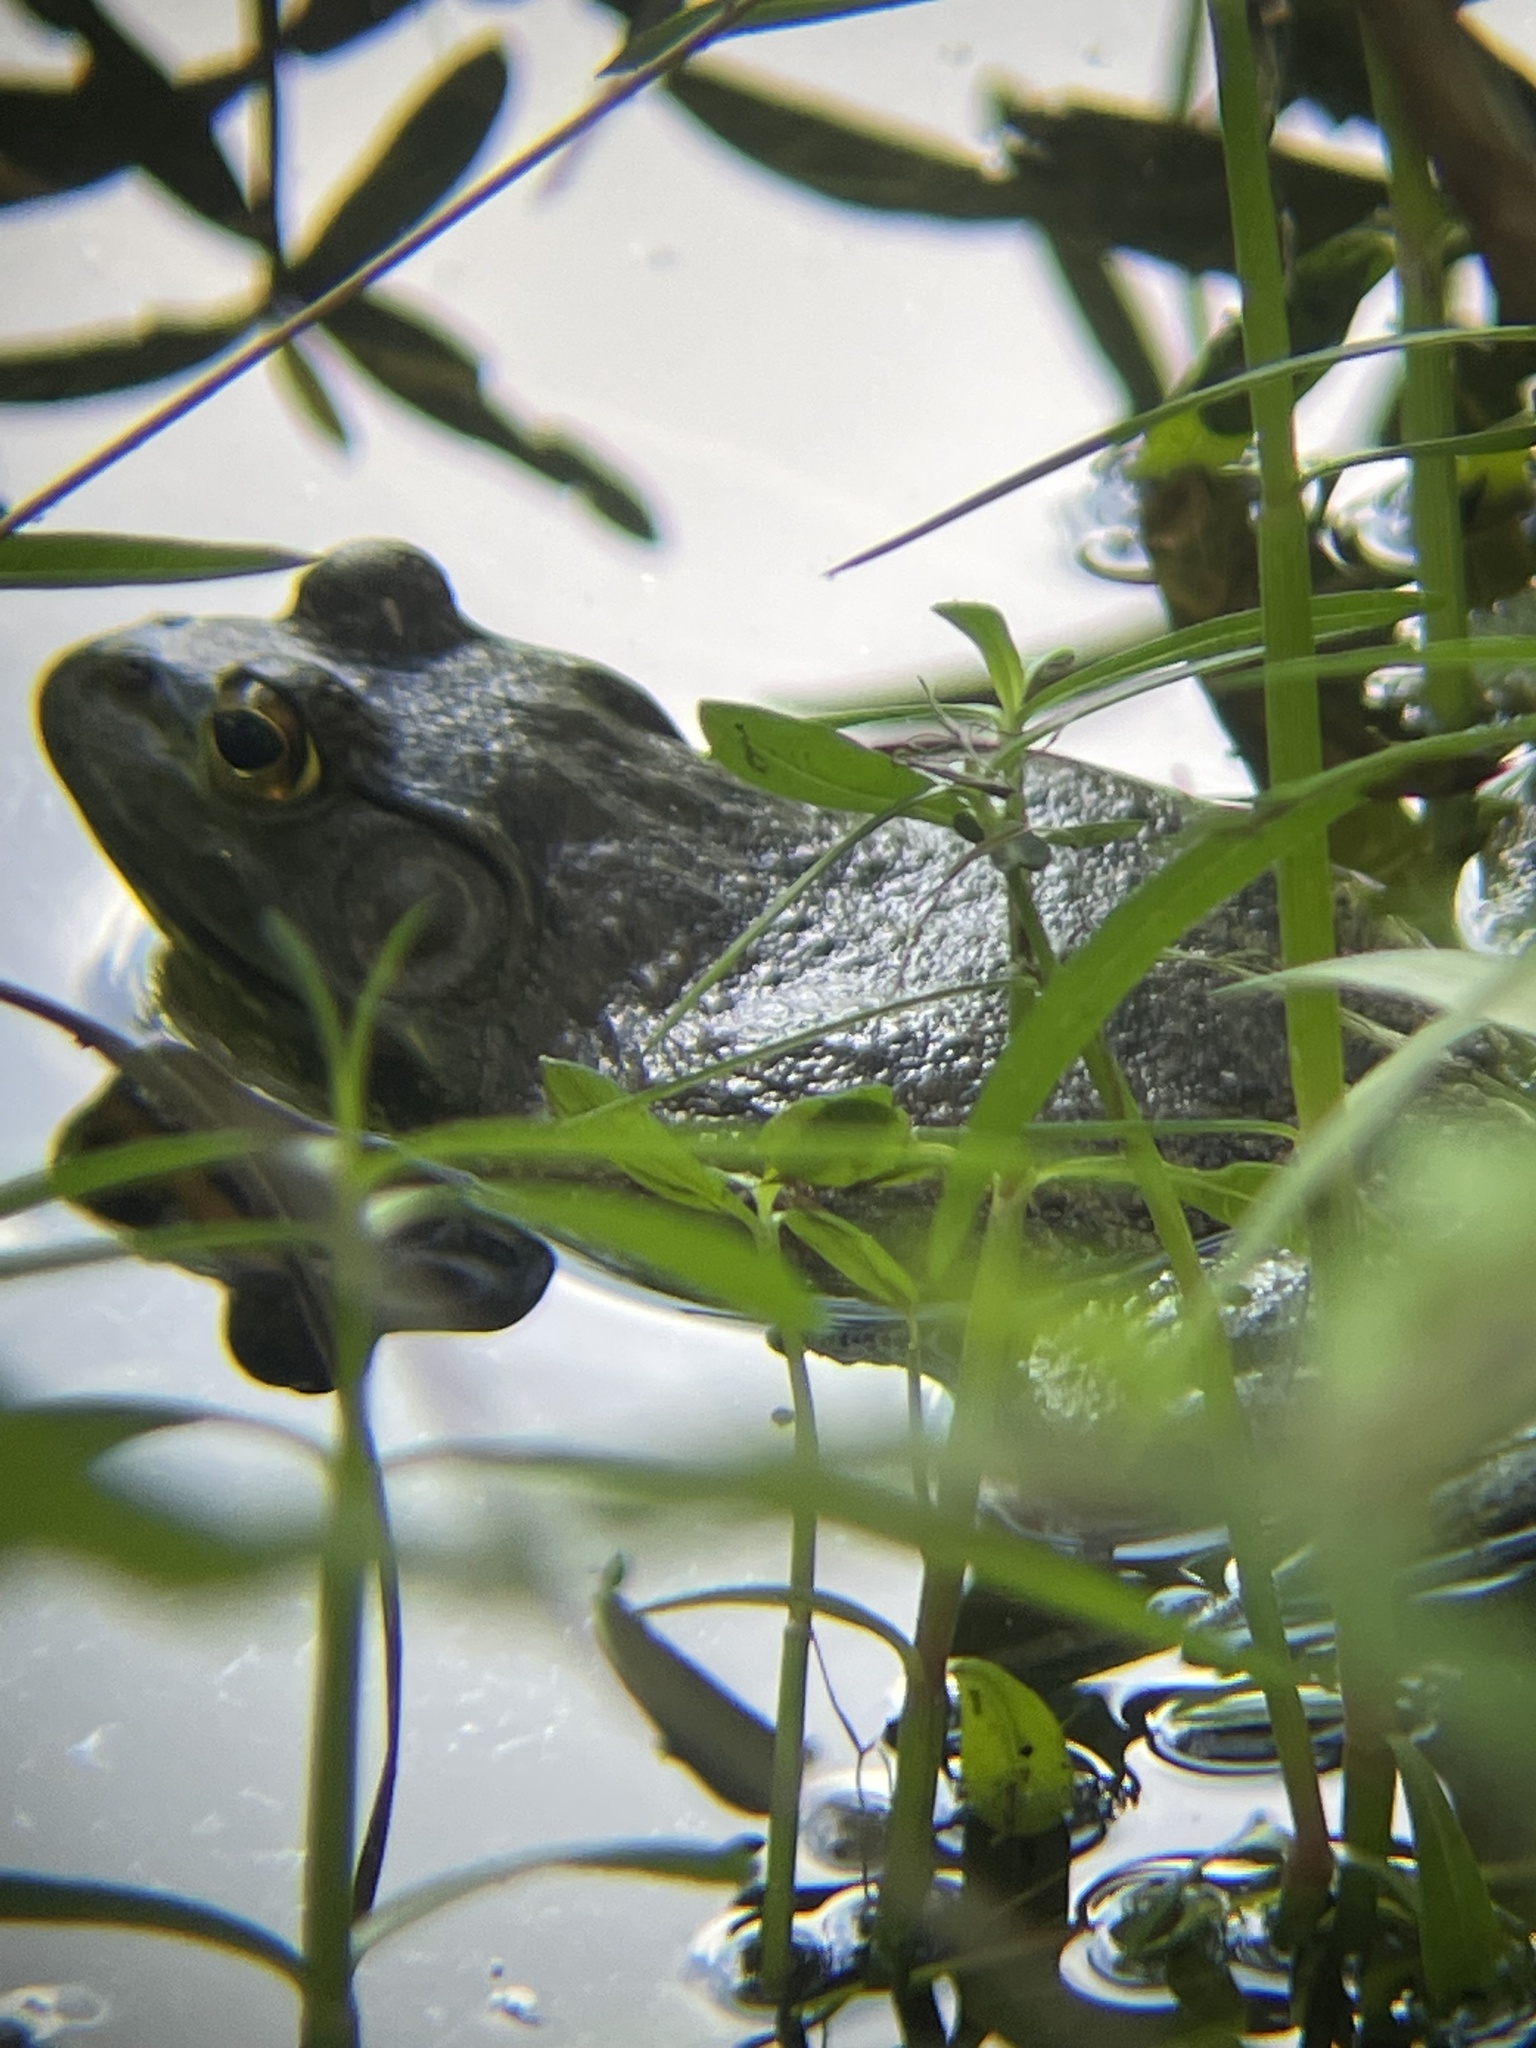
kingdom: Animalia
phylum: Chordata
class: Amphibia
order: Anura
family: Ranidae
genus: Lithobates
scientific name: Lithobates catesbeianus
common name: American bullfrog
